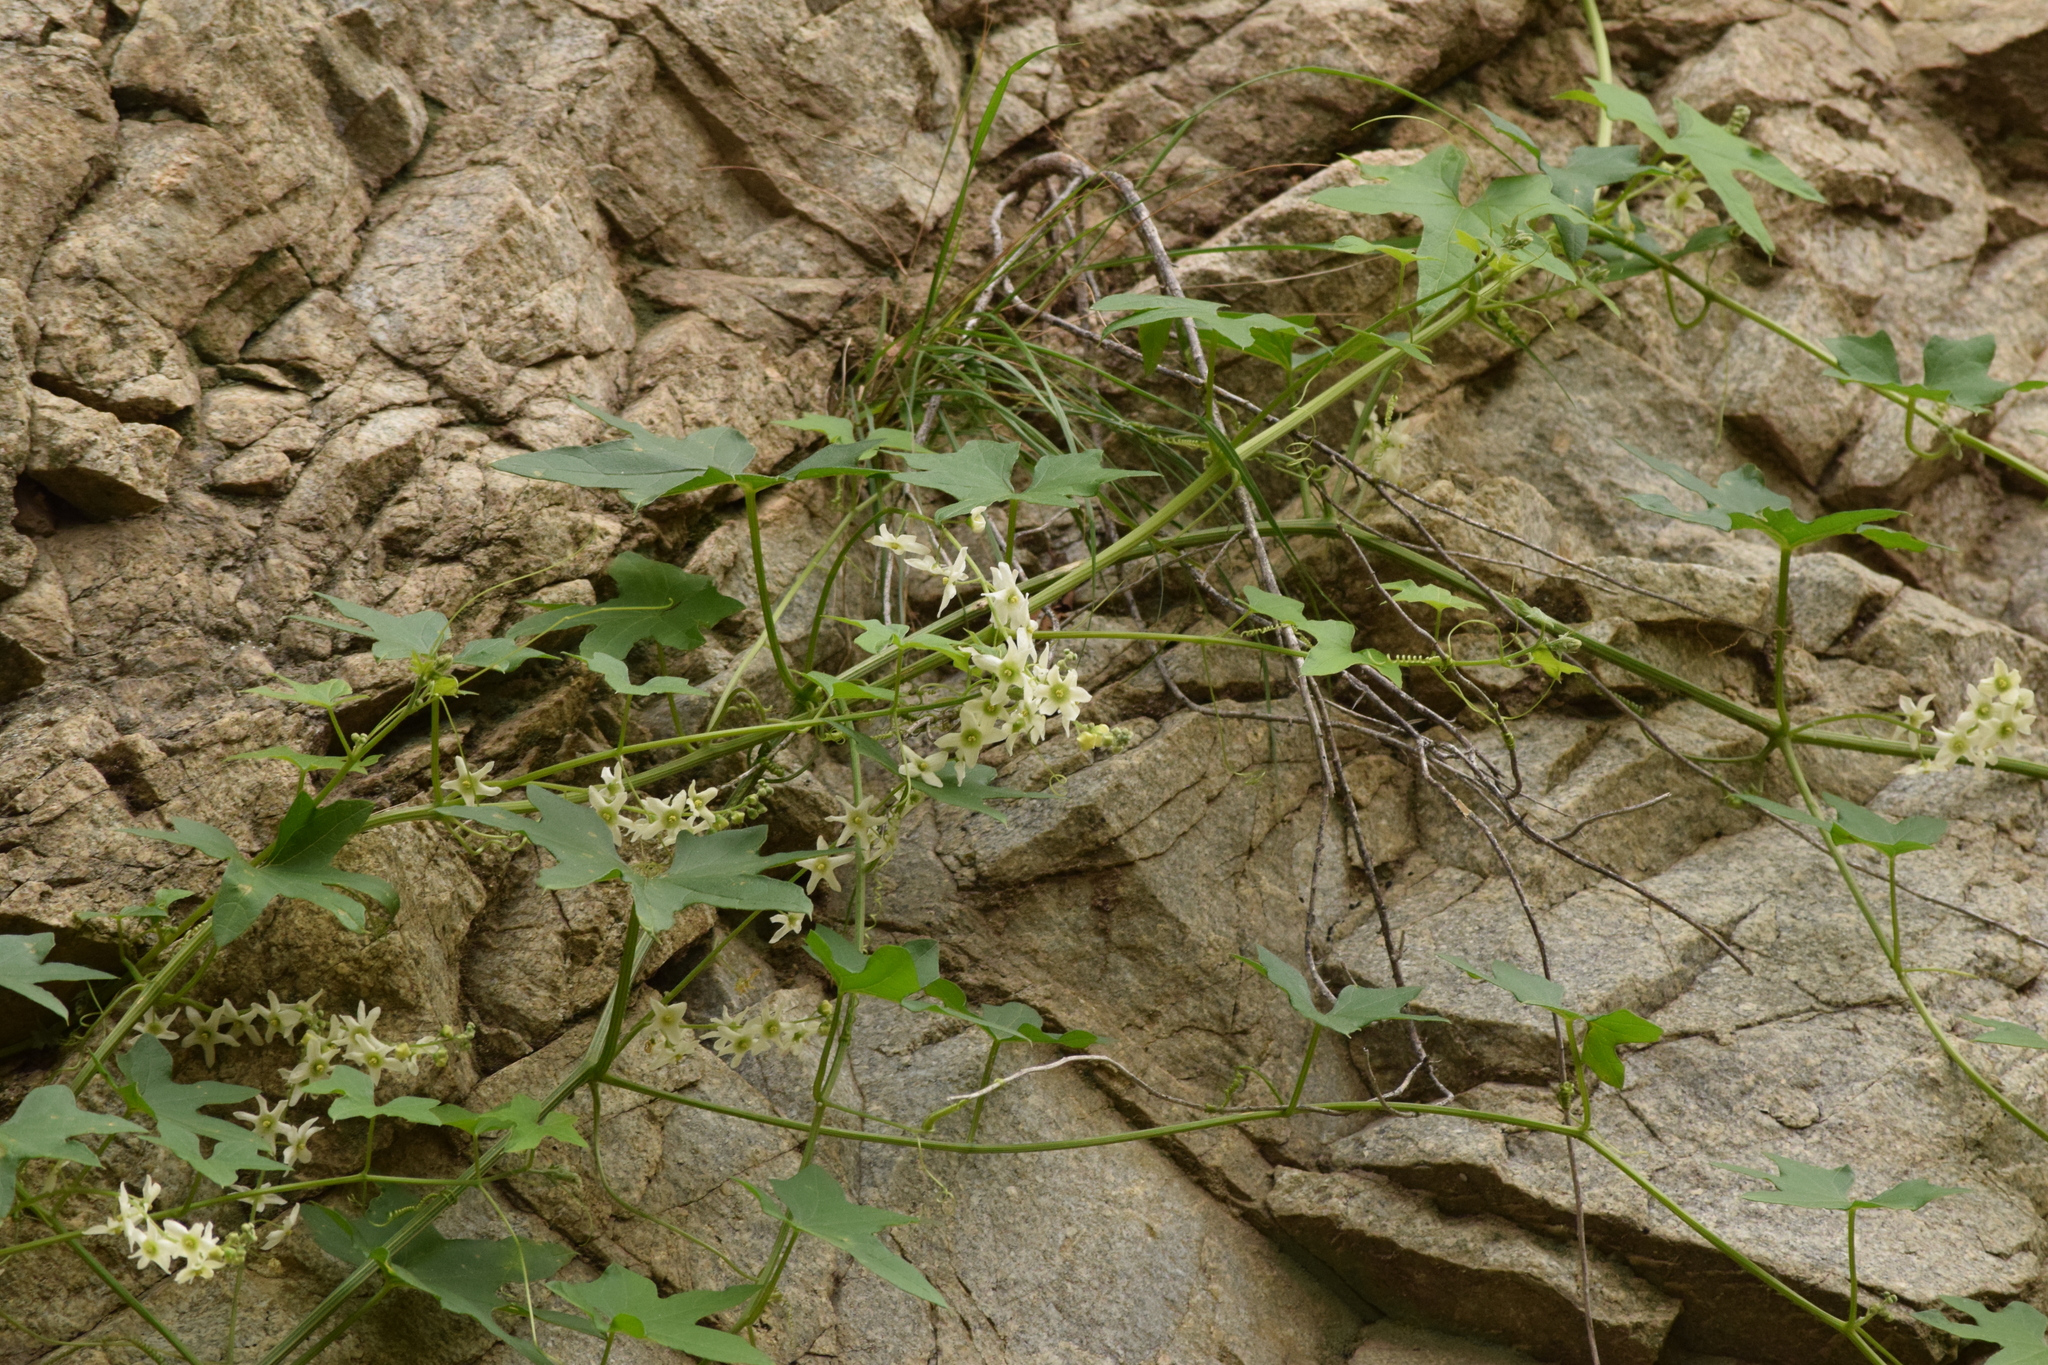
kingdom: Plantae
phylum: Tracheophyta
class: Magnoliopsida
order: Cucurbitales
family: Cucurbitaceae
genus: Marah
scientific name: Marah macrocarpa
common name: Cucamonga manroot
